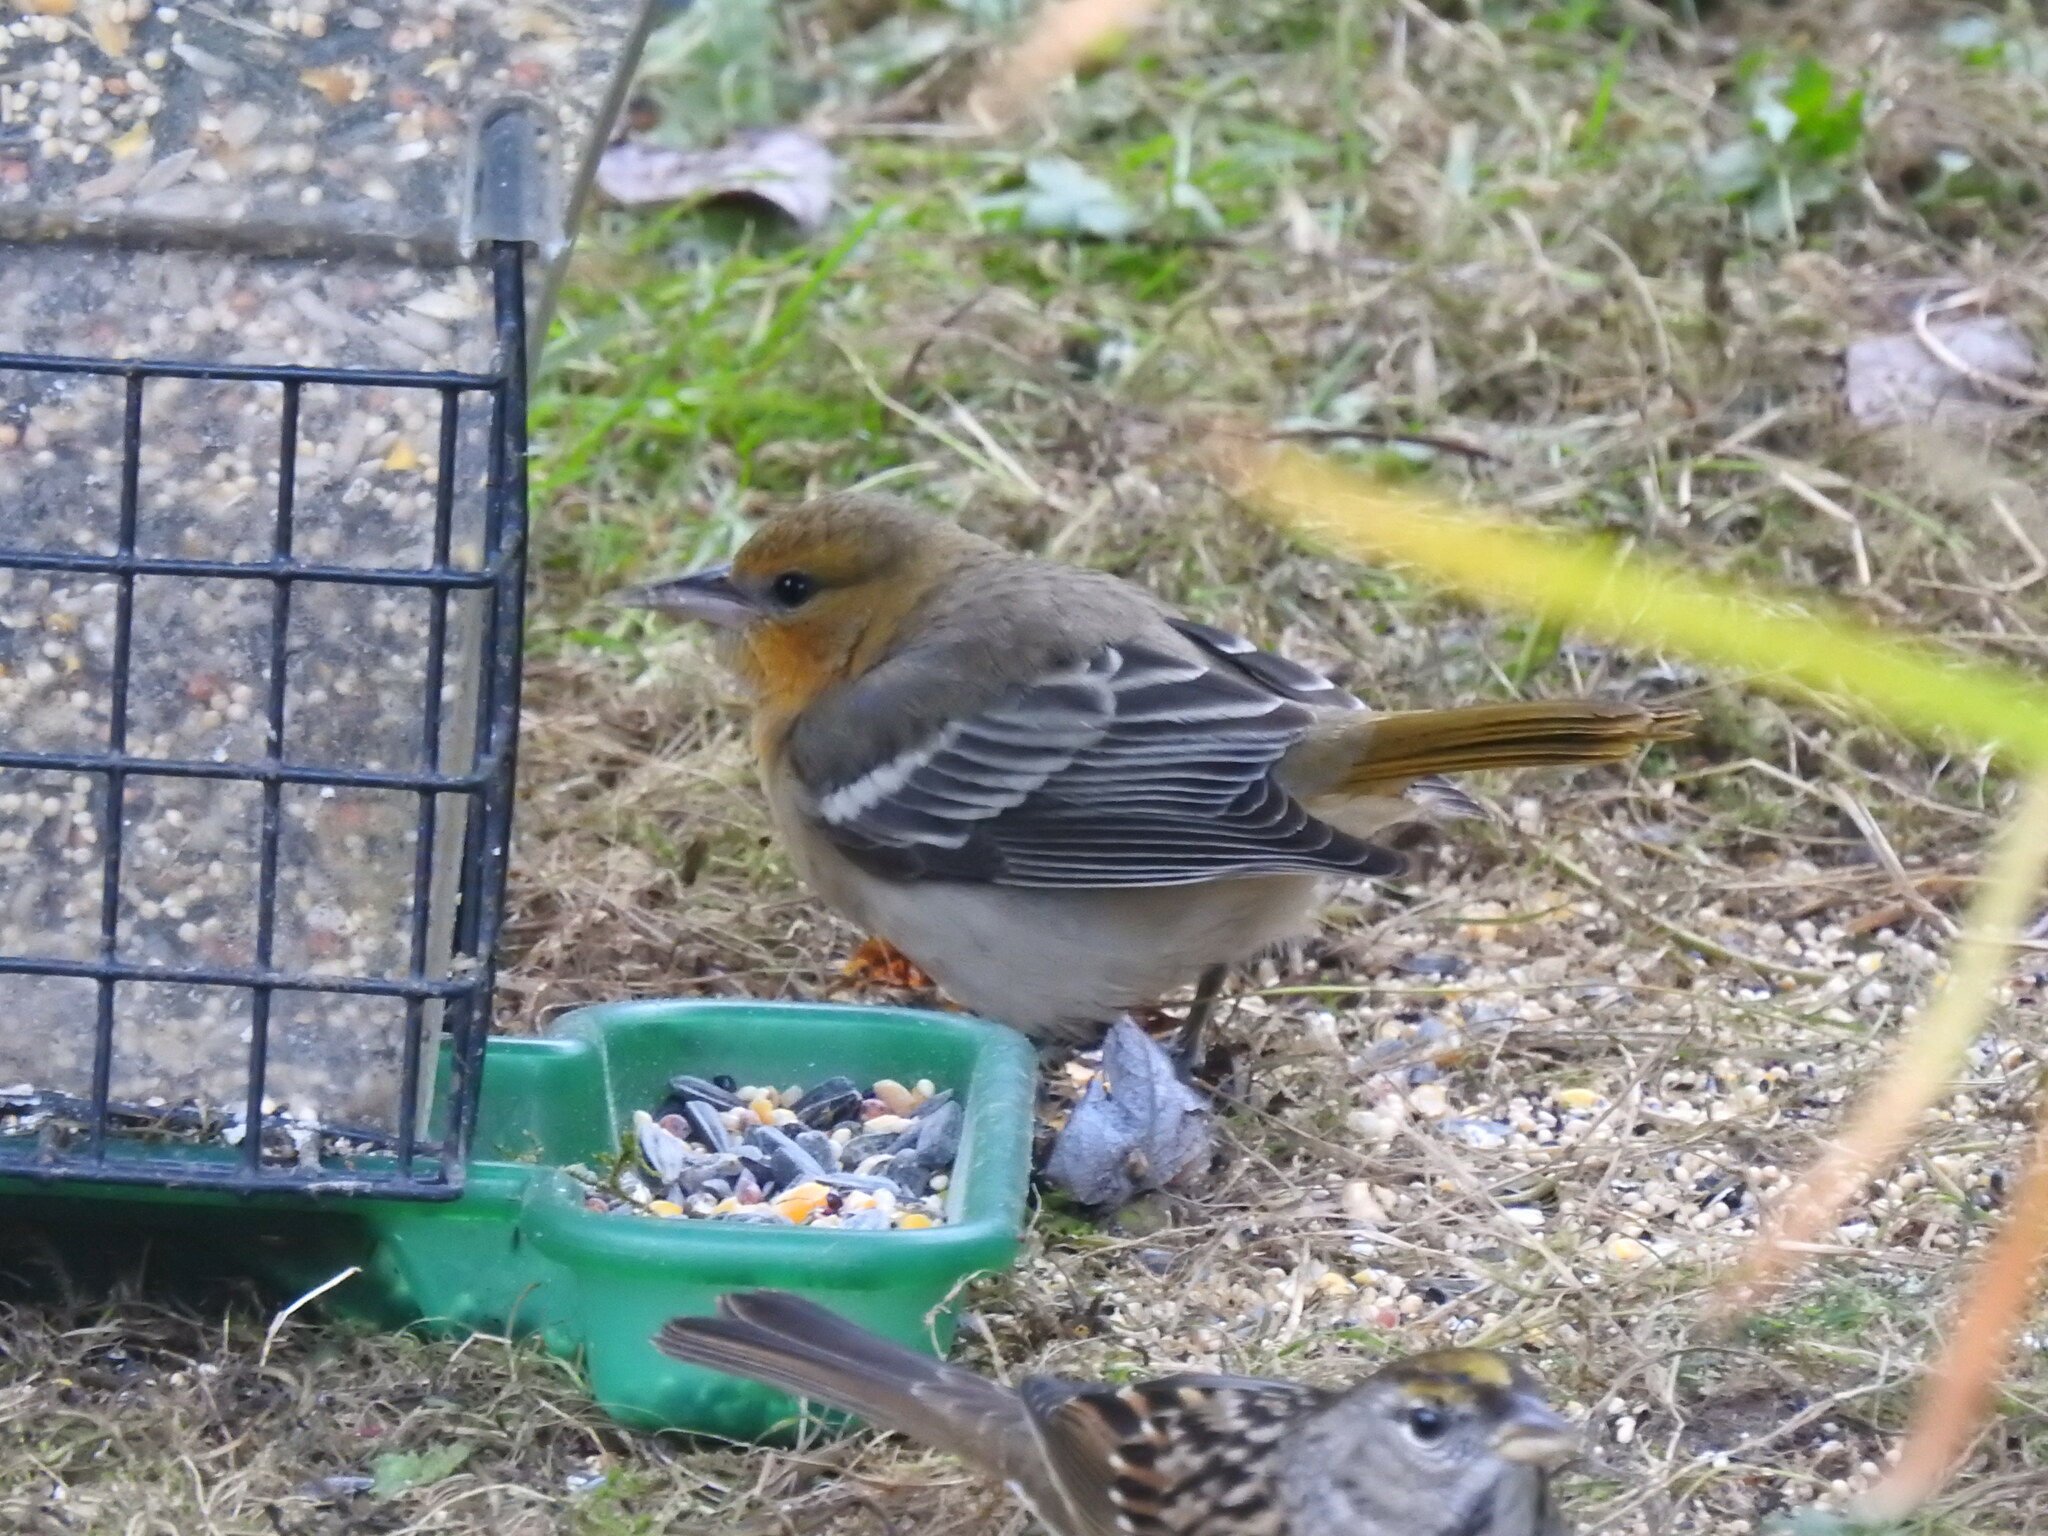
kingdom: Animalia
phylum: Chordata
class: Aves
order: Passeriformes
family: Icteridae
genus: Icterus
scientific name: Icterus bullockii
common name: Bullock's oriole
